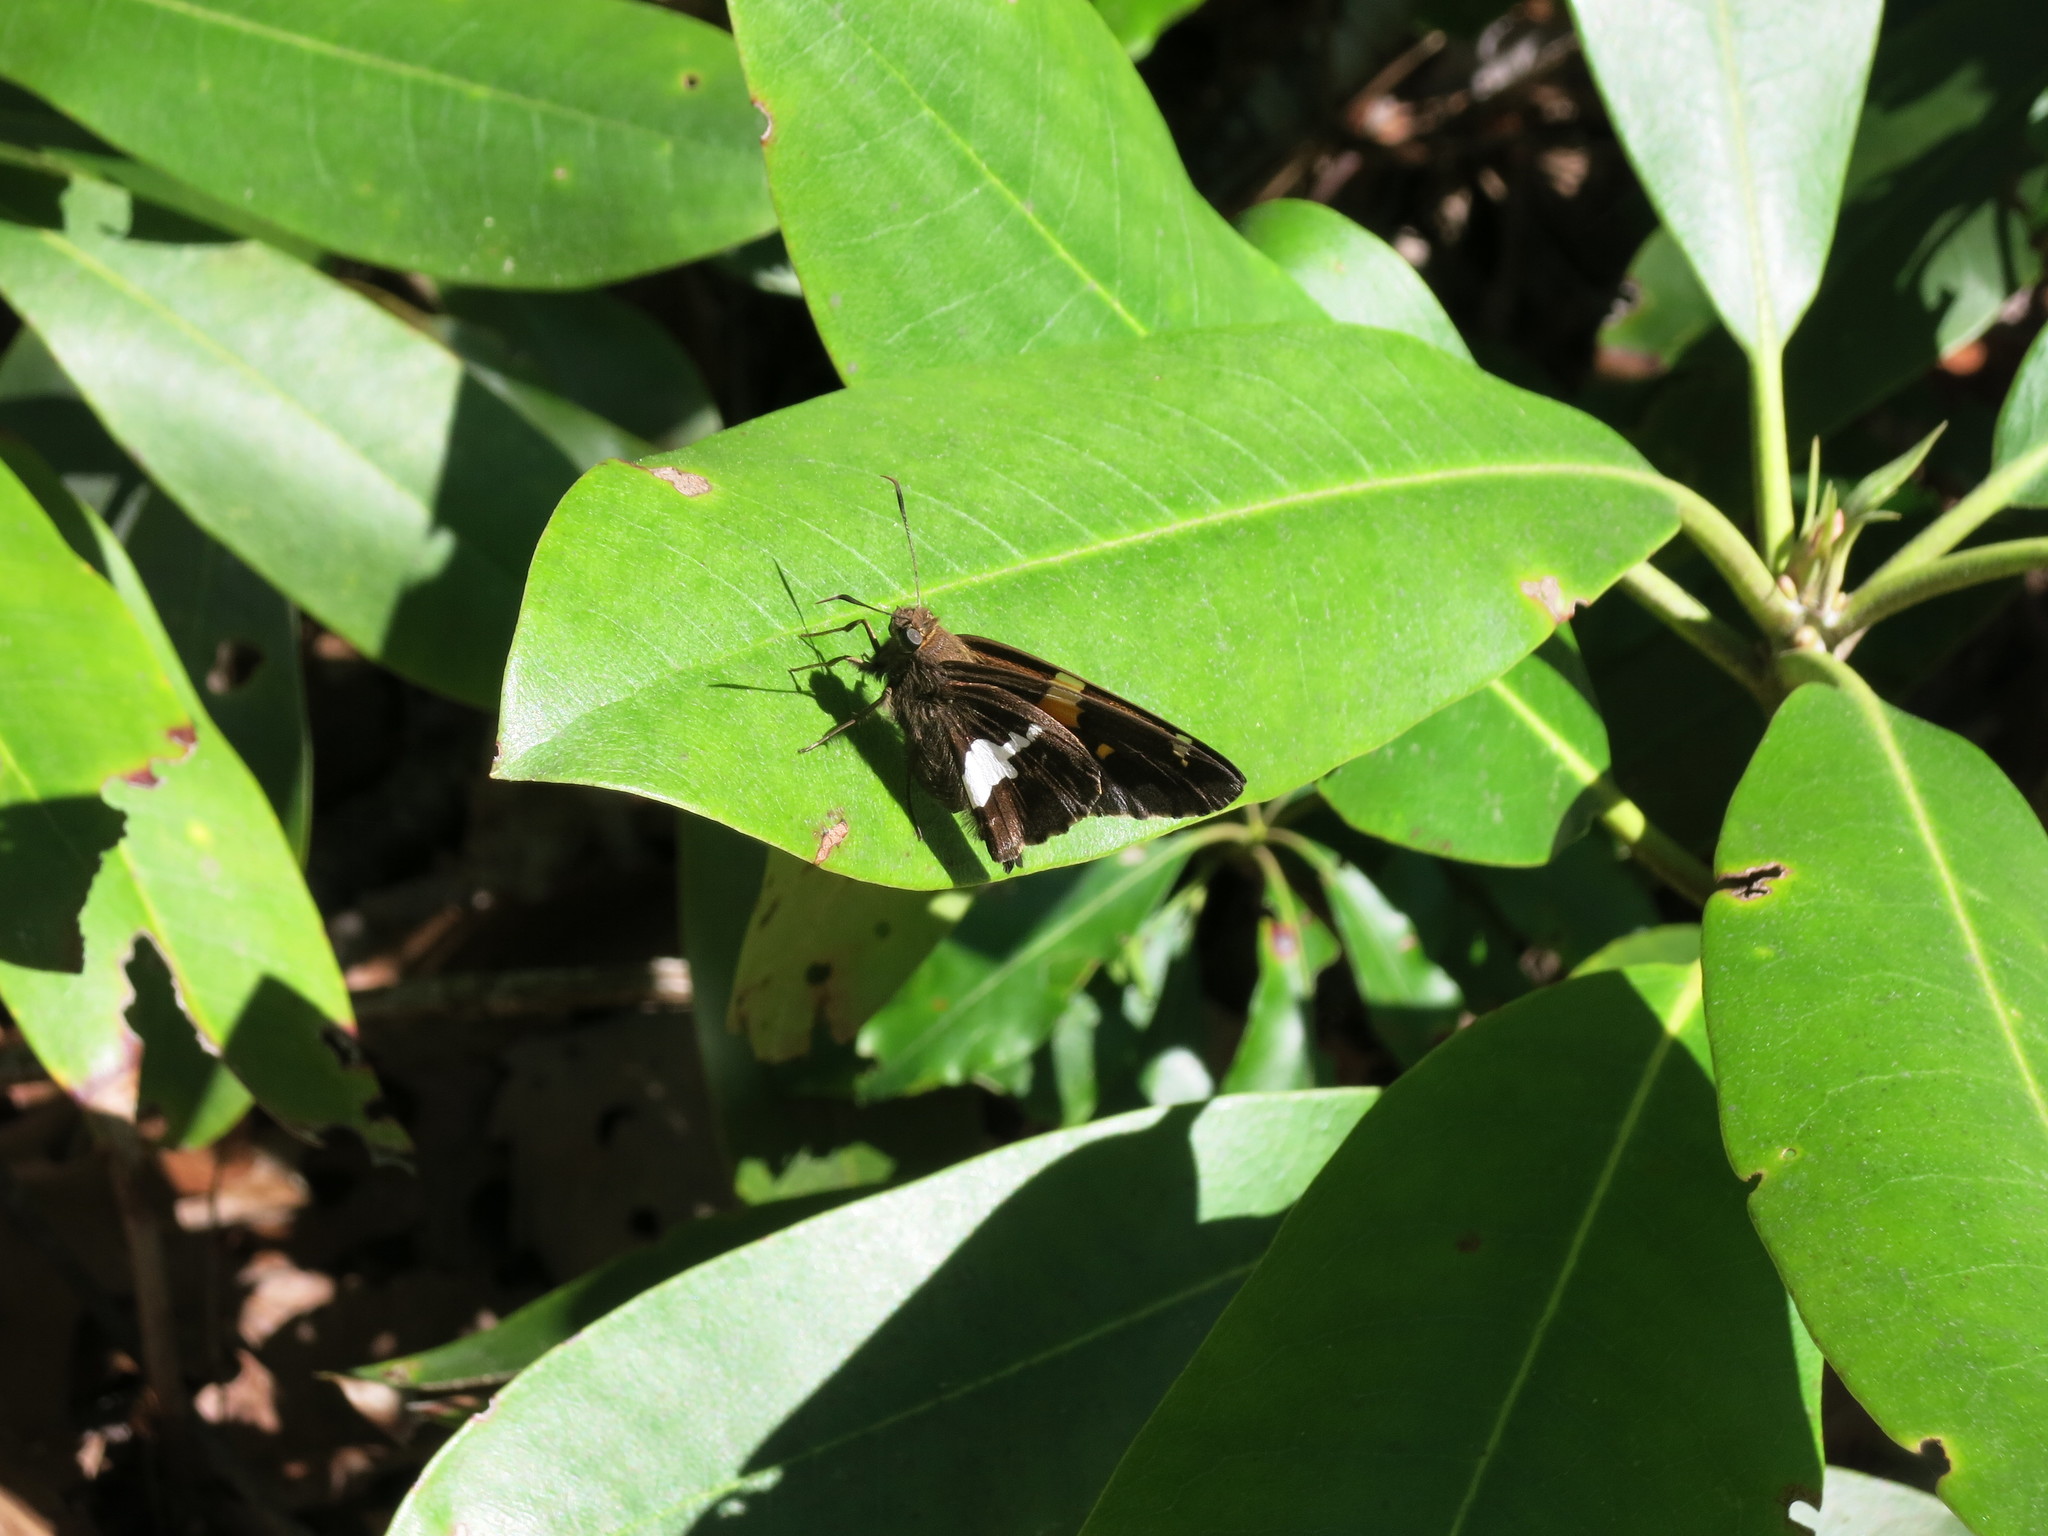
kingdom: Animalia
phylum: Arthropoda
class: Insecta
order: Lepidoptera
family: Hesperiidae
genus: Epargyreus
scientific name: Epargyreus clarus
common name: Silver-spotted skipper
